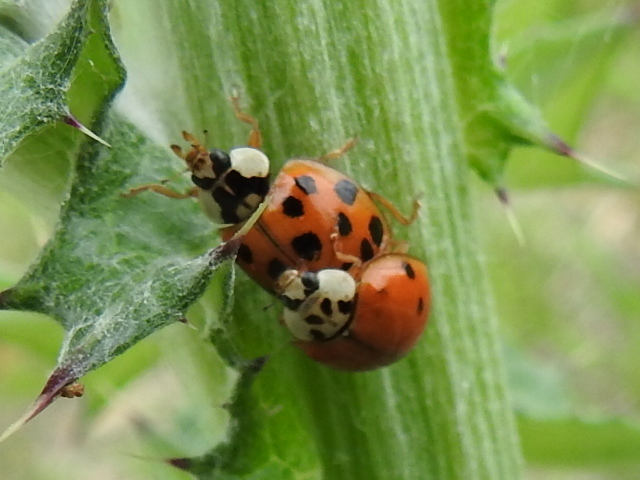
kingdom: Animalia
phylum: Arthropoda
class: Insecta
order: Coleoptera
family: Coccinellidae
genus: Harmonia
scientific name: Harmonia axyridis
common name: Harlequin ladybird
